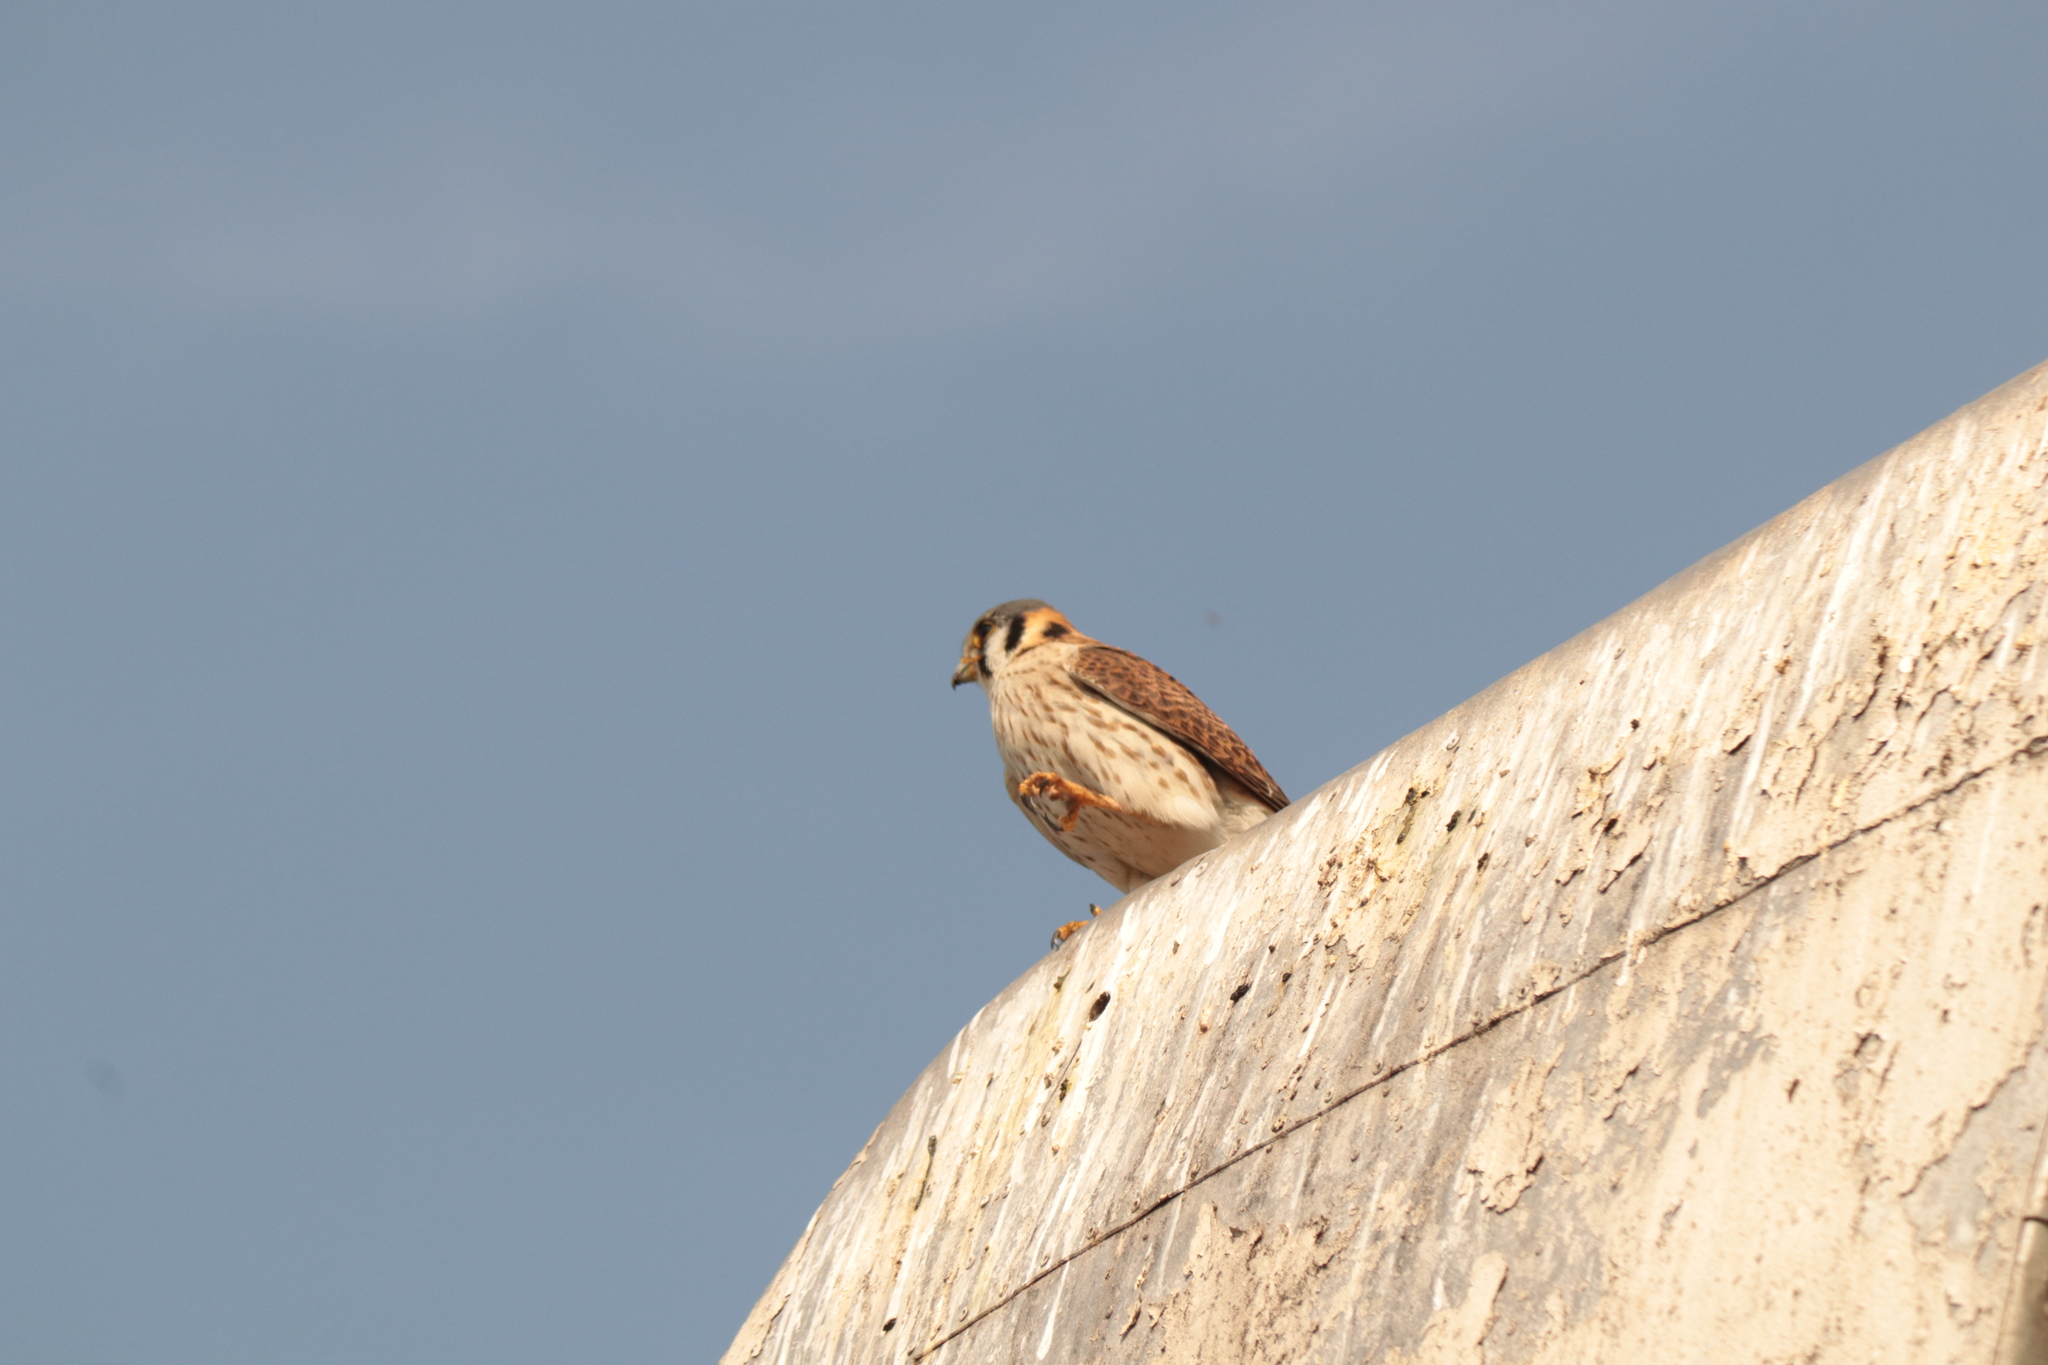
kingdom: Animalia
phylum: Chordata
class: Aves
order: Falconiformes
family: Falconidae
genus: Falco
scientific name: Falco sparverius
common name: American kestrel
